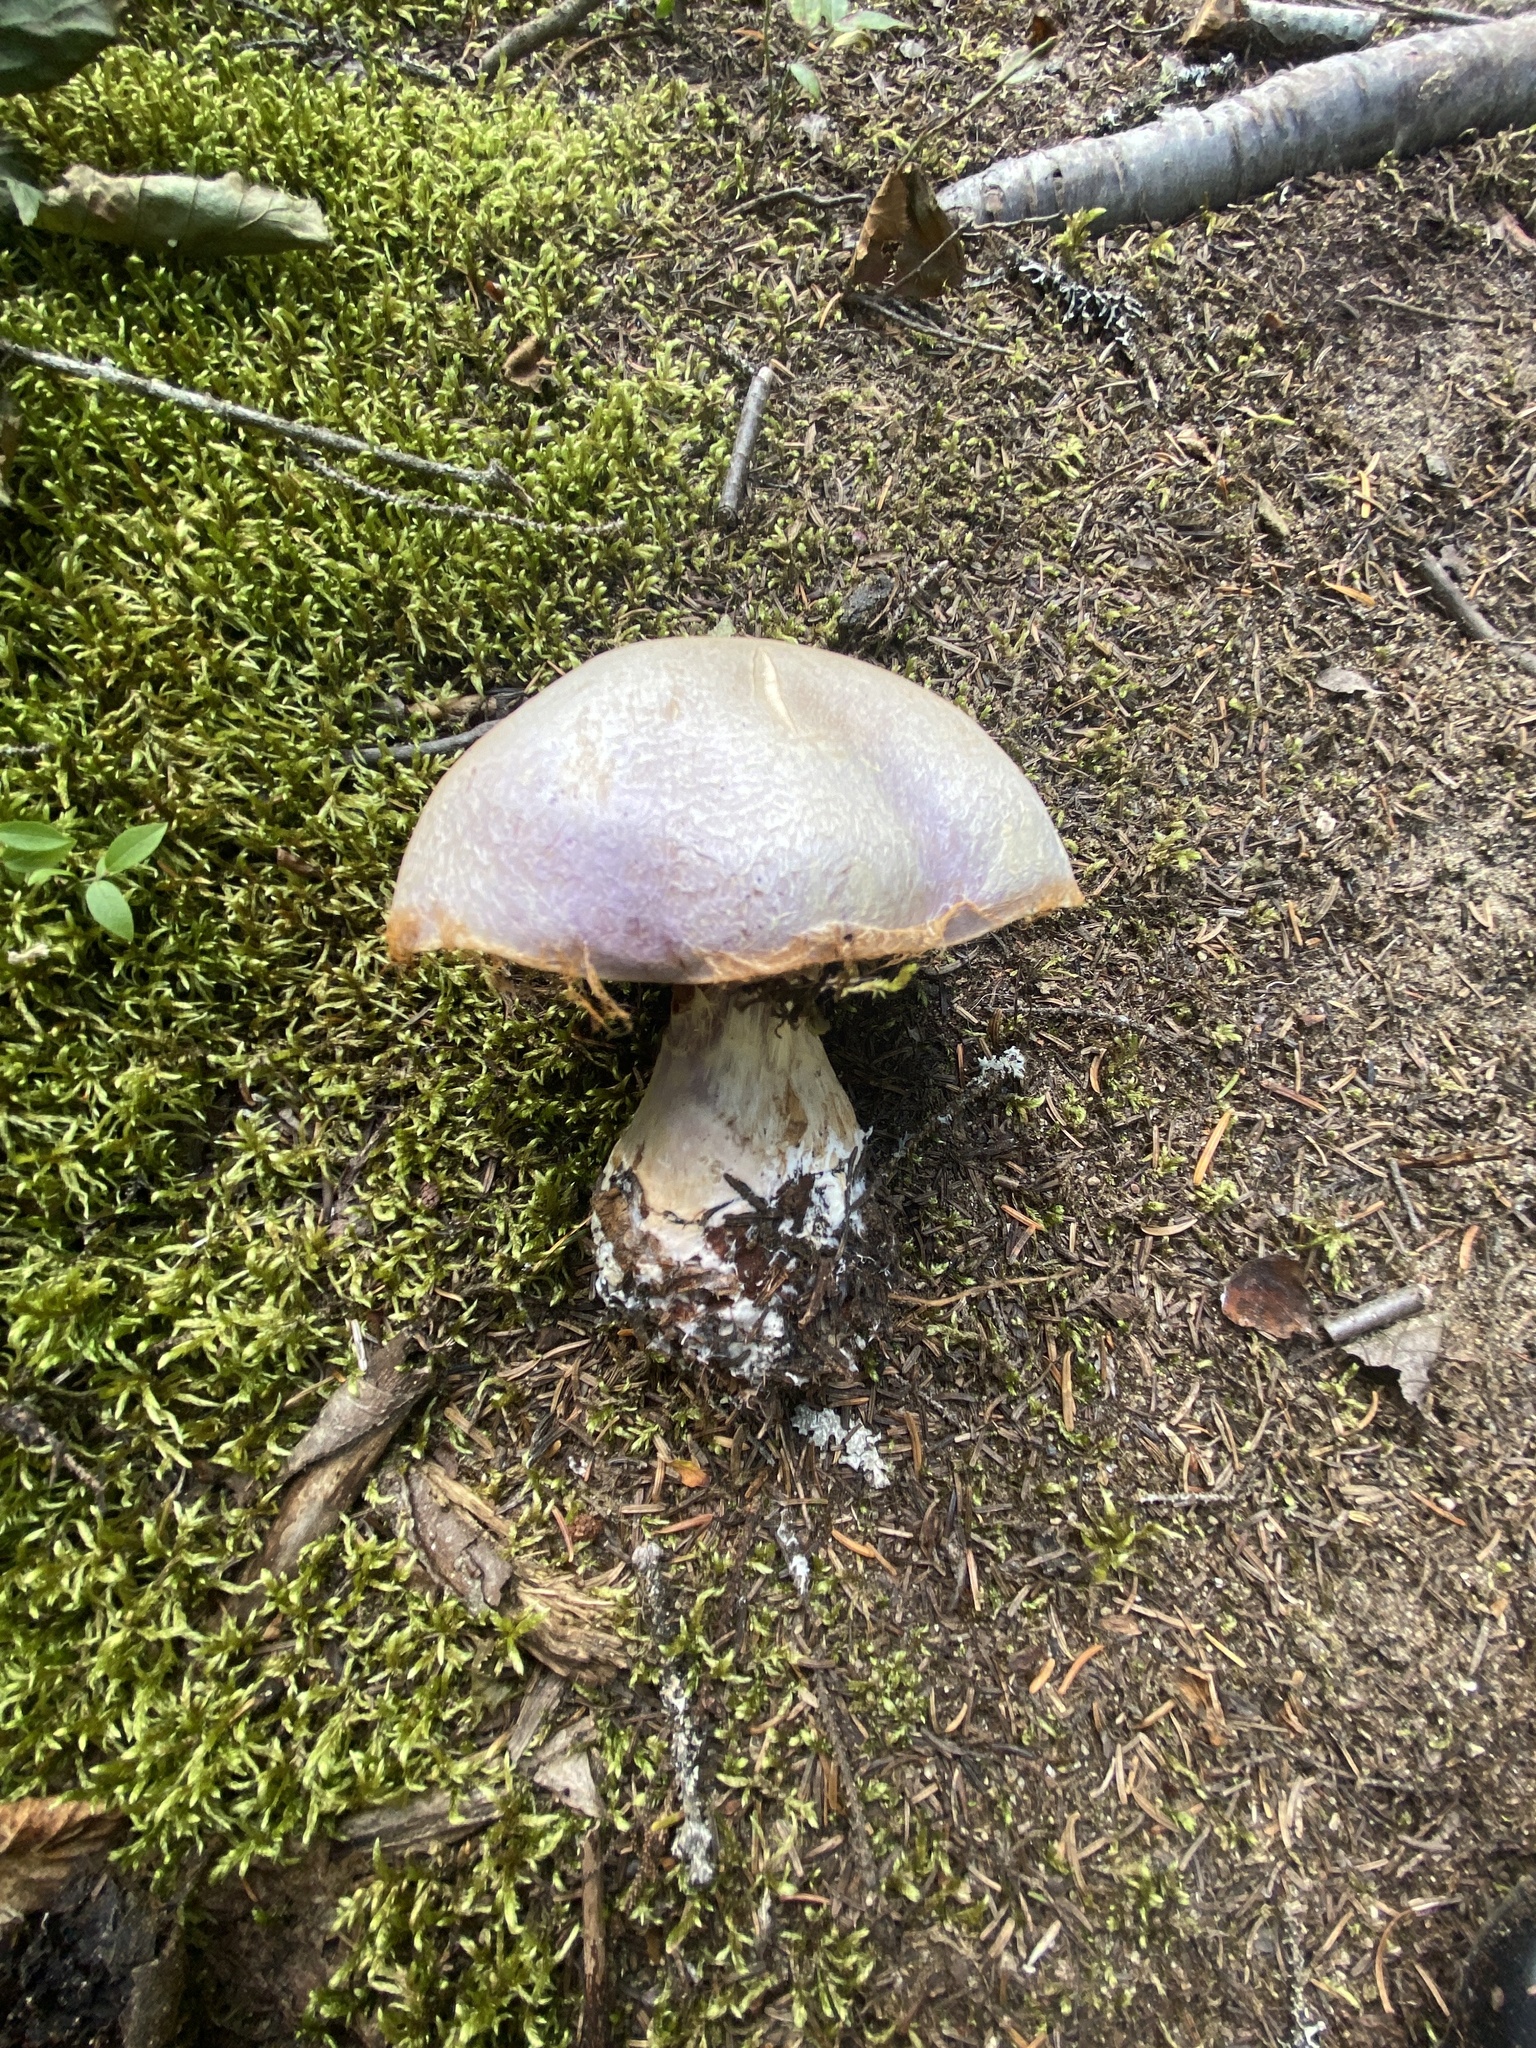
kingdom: Fungi
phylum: Basidiomycota
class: Agaricomycetes
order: Agaricales
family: Cortinariaceae
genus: Cortinarius
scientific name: Cortinarius traganus
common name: Gassy webcap
